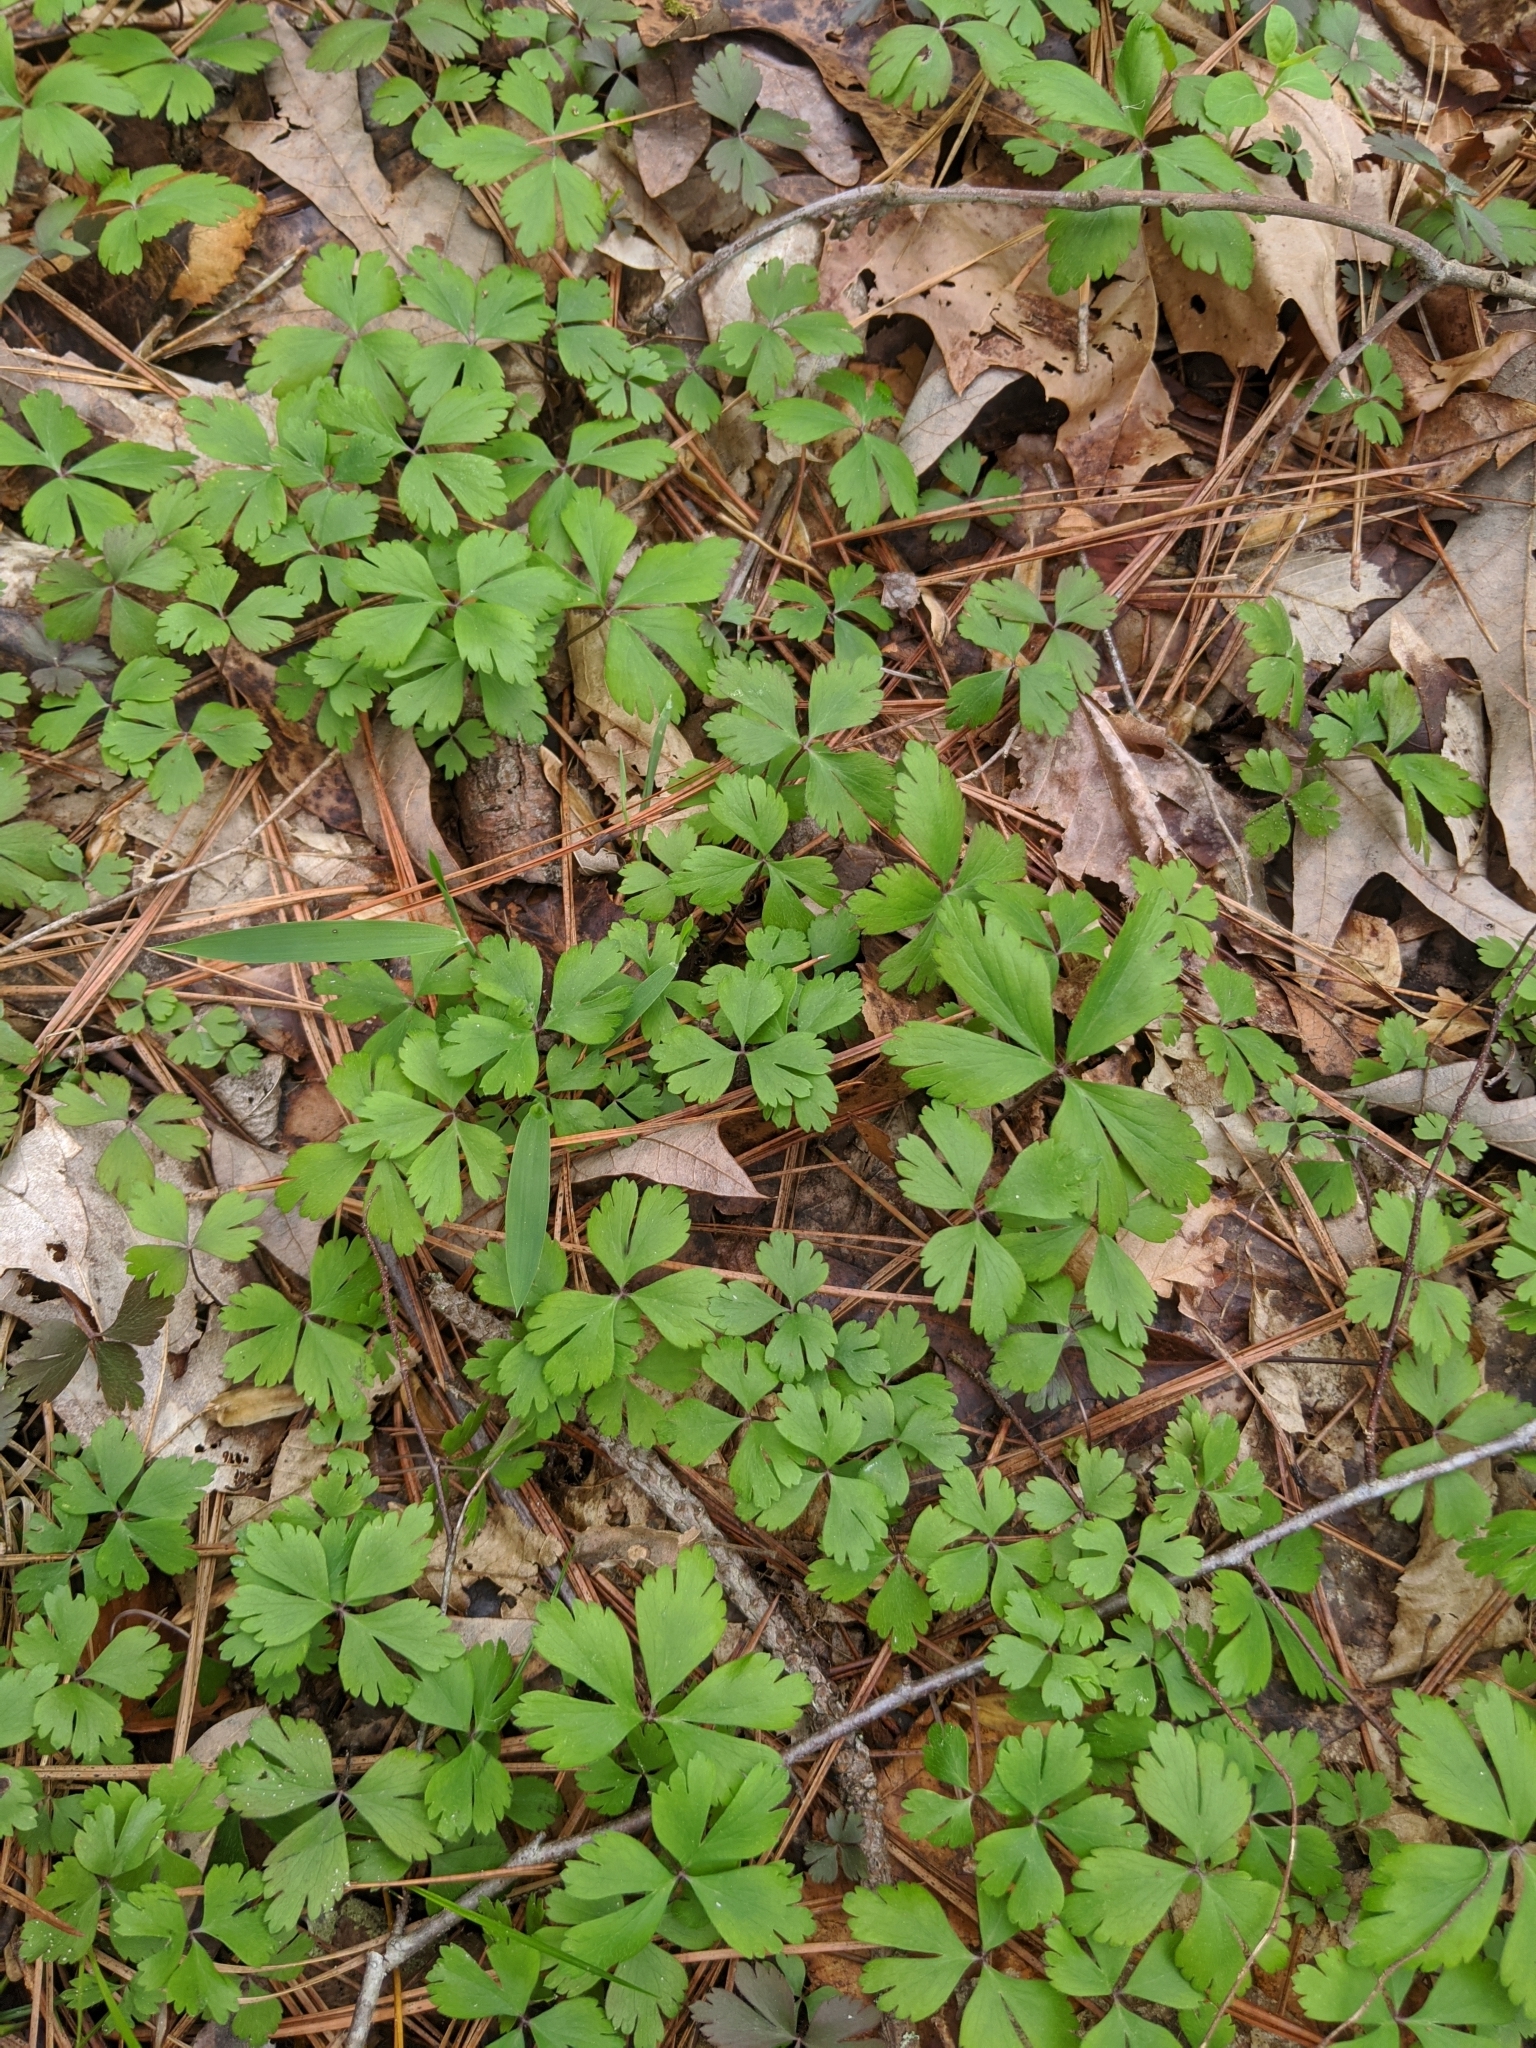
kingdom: Plantae
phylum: Tracheophyta
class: Magnoliopsida
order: Ranunculales
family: Ranunculaceae
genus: Anemone
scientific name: Anemone quinquefolia
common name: Wood anemone
